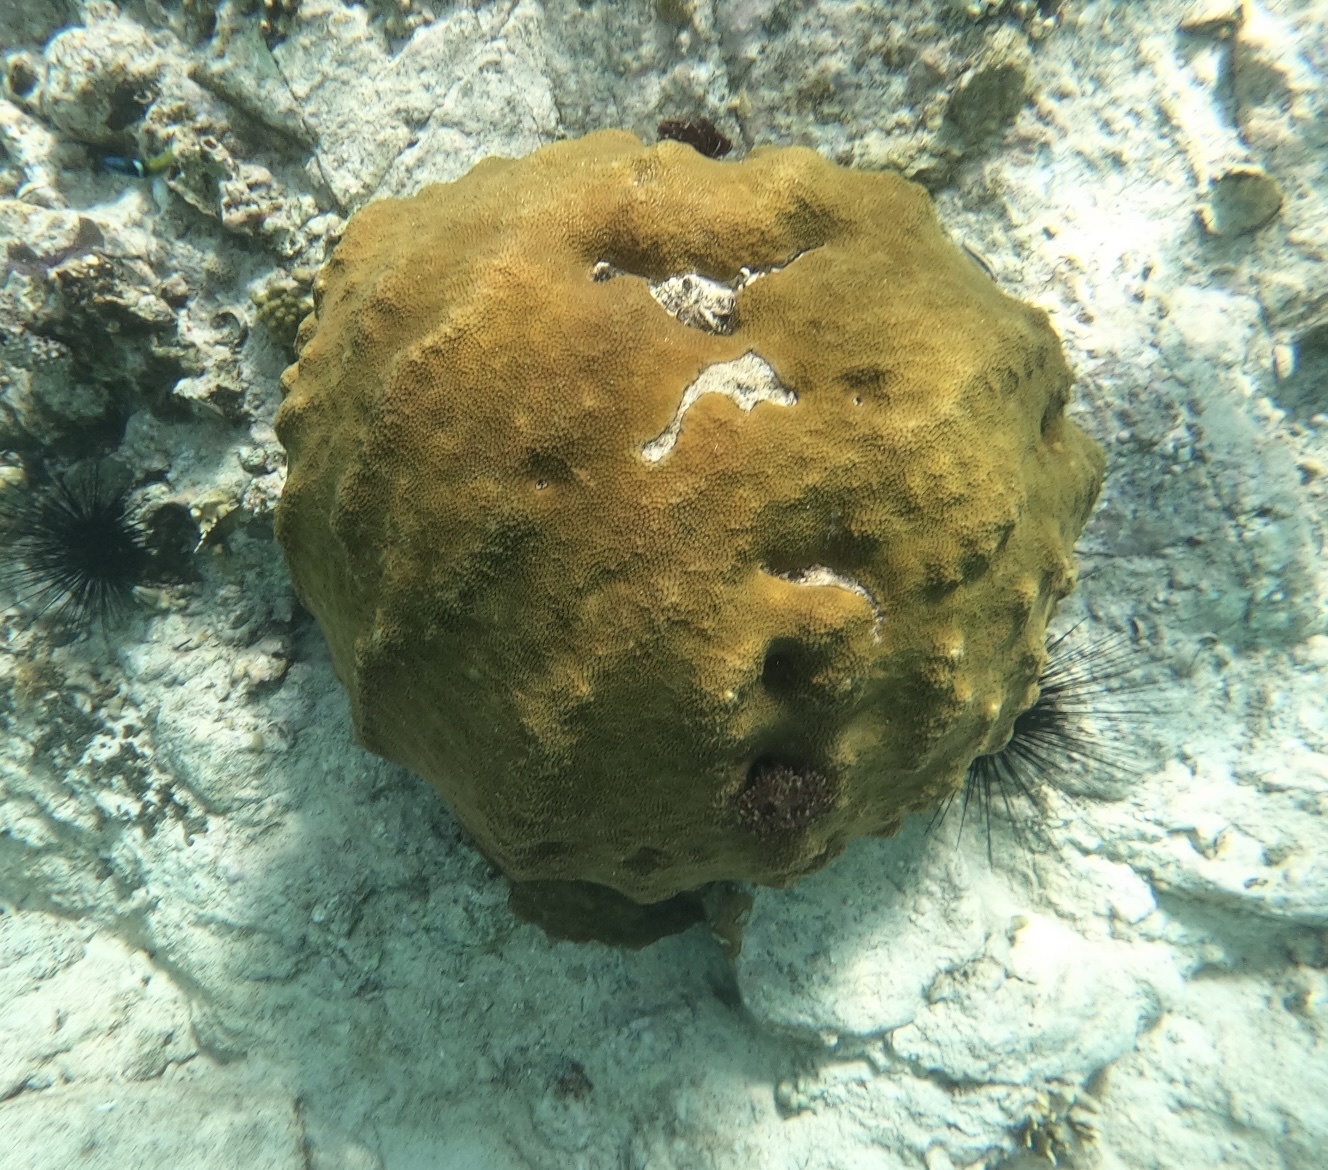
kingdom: Animalia
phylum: Cnidaria
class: Anthozoa
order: Scleractinia
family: Merulinidae
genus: Orbicella
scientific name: Orbicella faveolata
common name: Mountainous star coral
